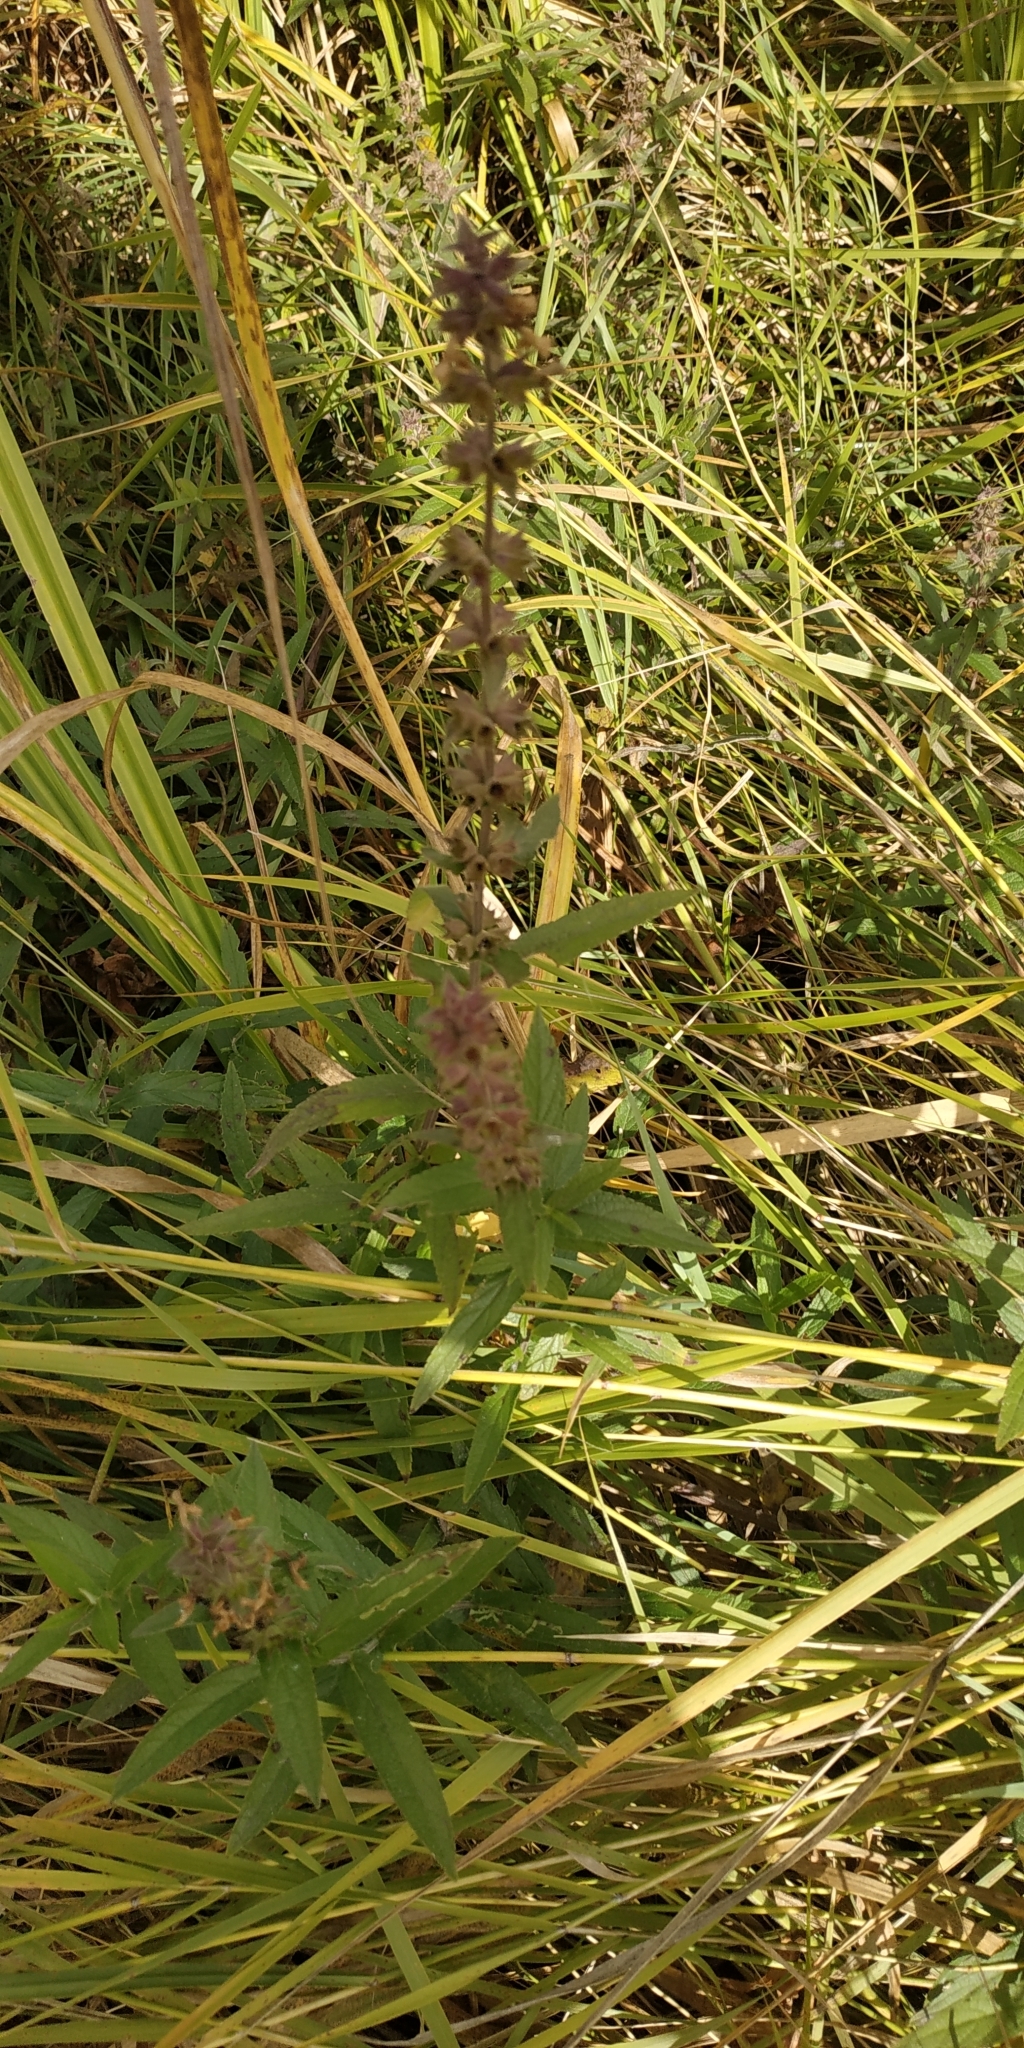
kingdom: Plantae
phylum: Tracheophyta
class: Magnoliopsida
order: Lamiales
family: Lamiaceae
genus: Stachys
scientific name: Stachys palustris
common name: Marsh woundwort
